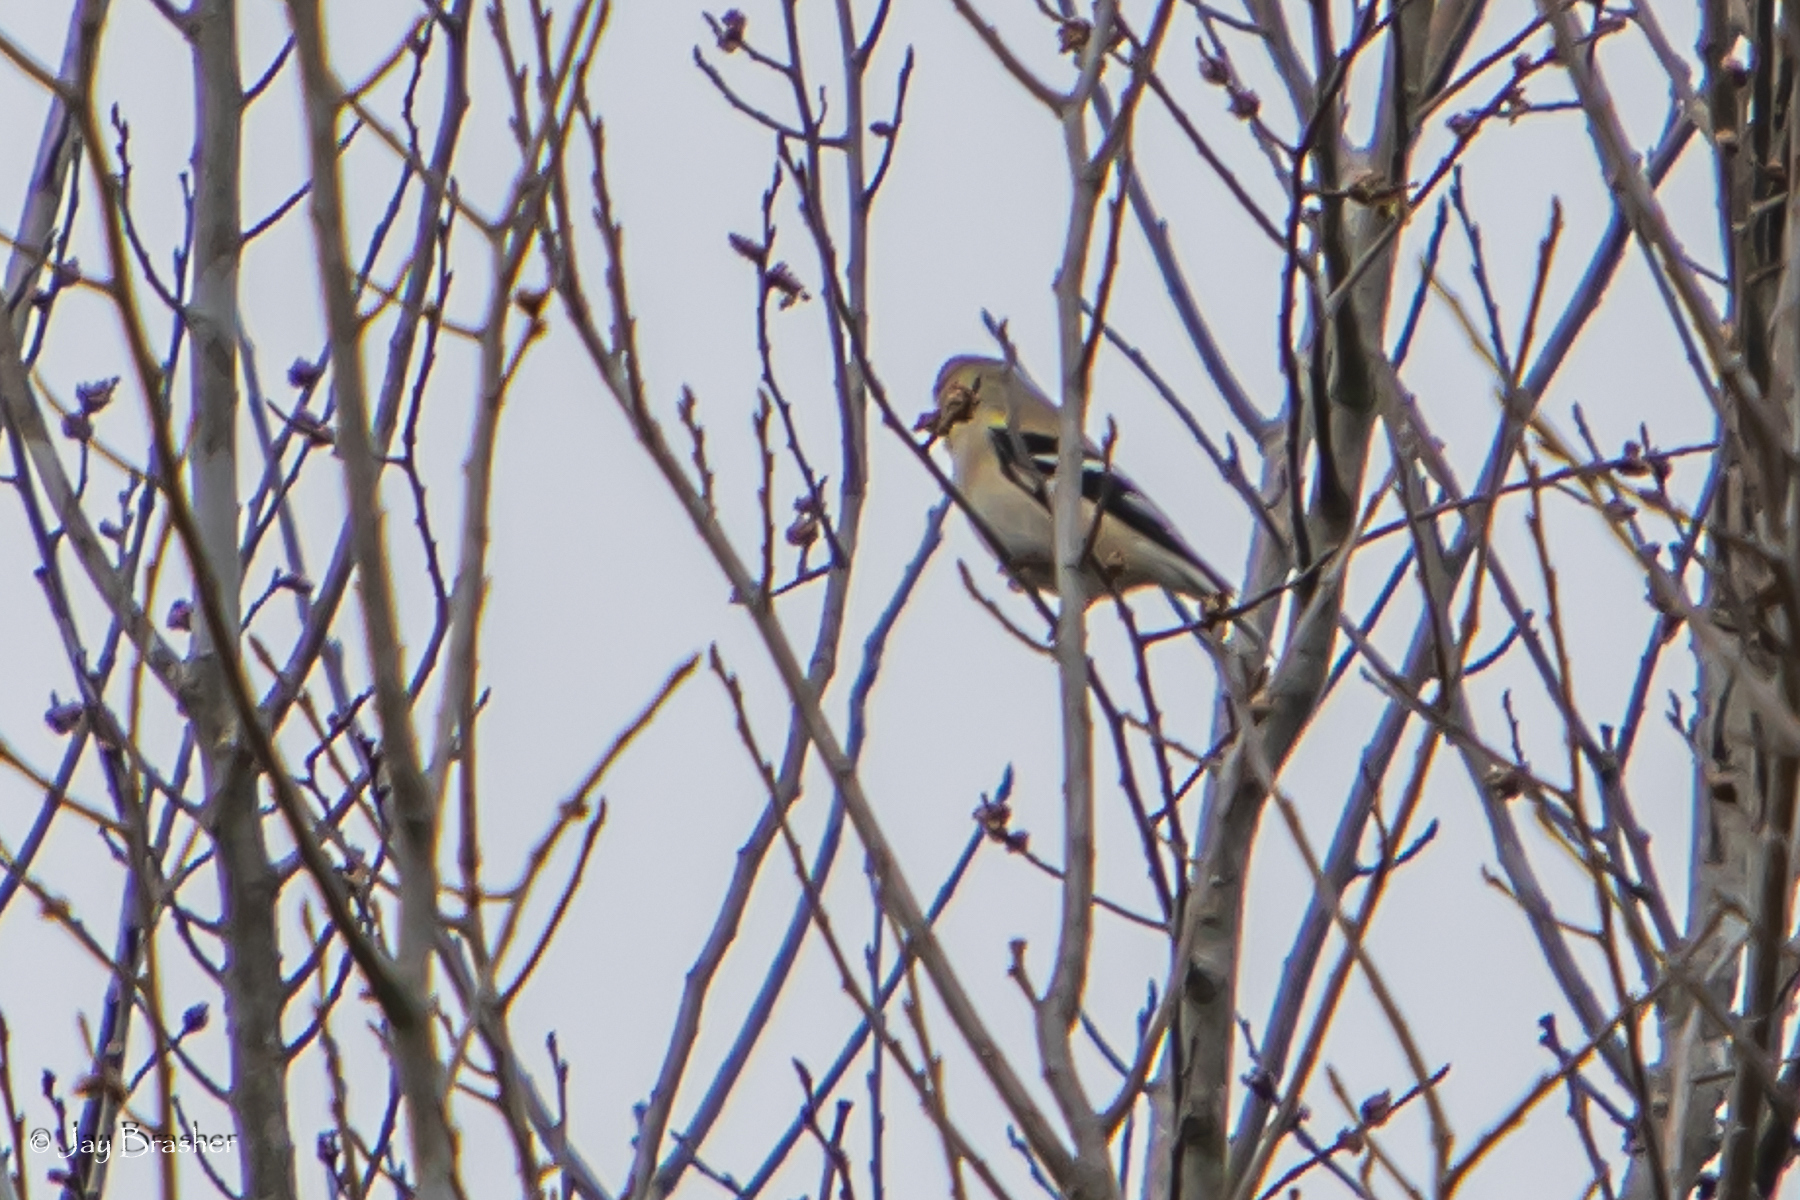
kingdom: Animalia
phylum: Chordata
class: Aves
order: Passeriformes
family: Fringillidae
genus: Spinus
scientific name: Spinus tristis
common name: American goldfinch
